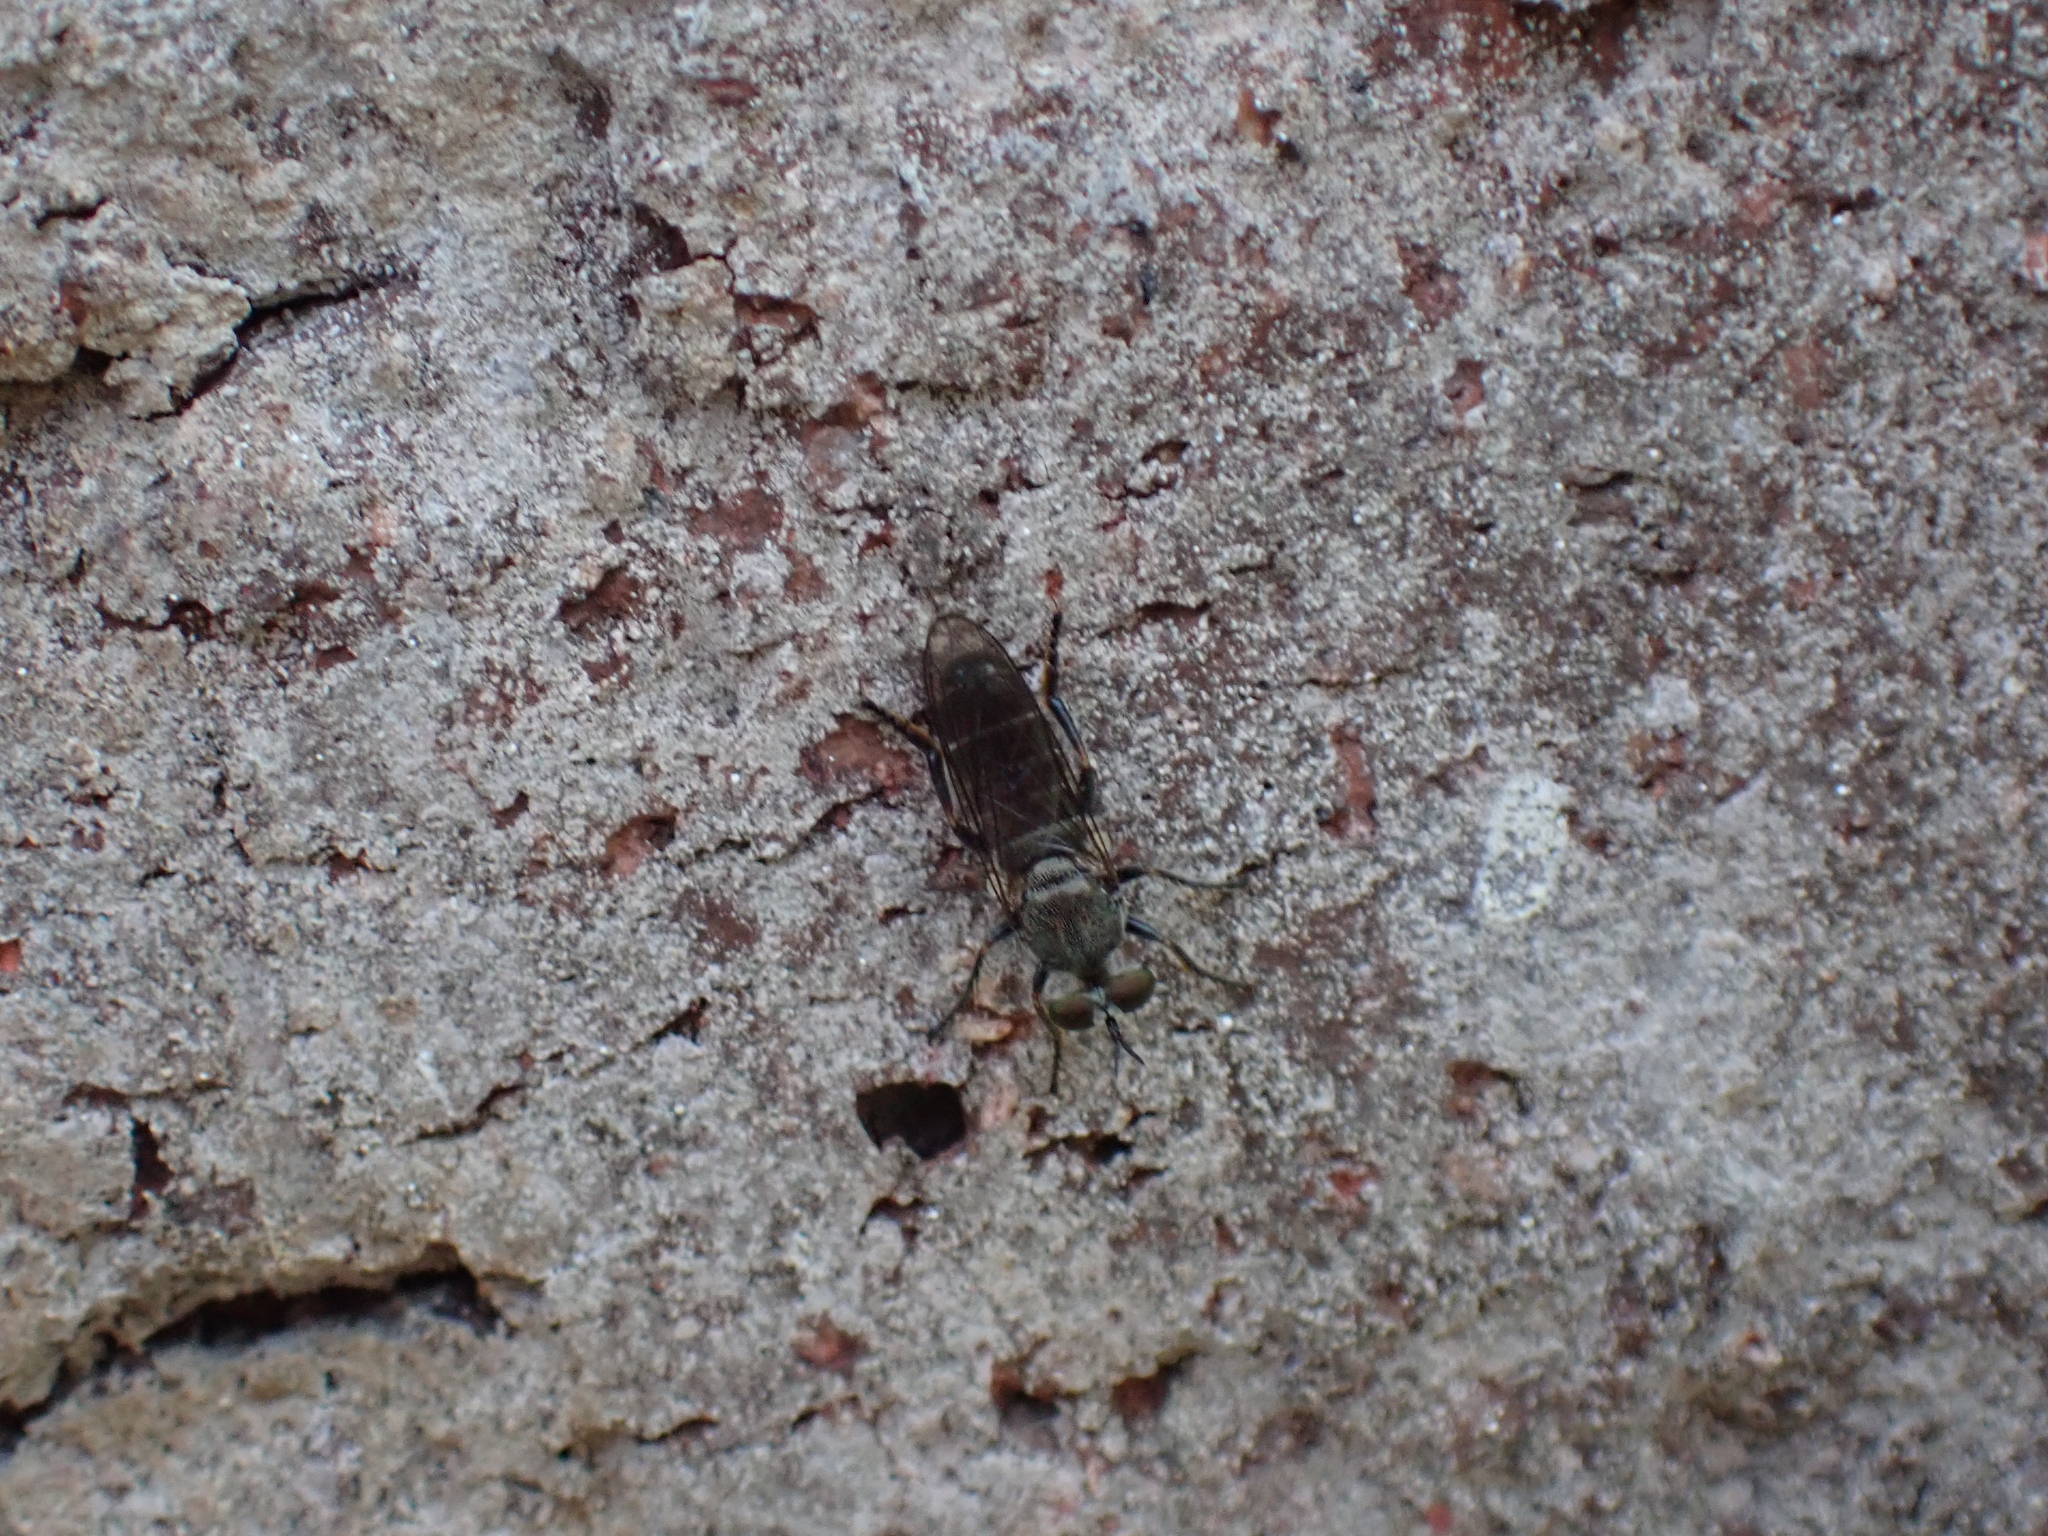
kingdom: Animalia
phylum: Arthropoda
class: Insecta
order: Diptera
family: Asilidae
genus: Atomosia
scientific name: Atomosia puella
